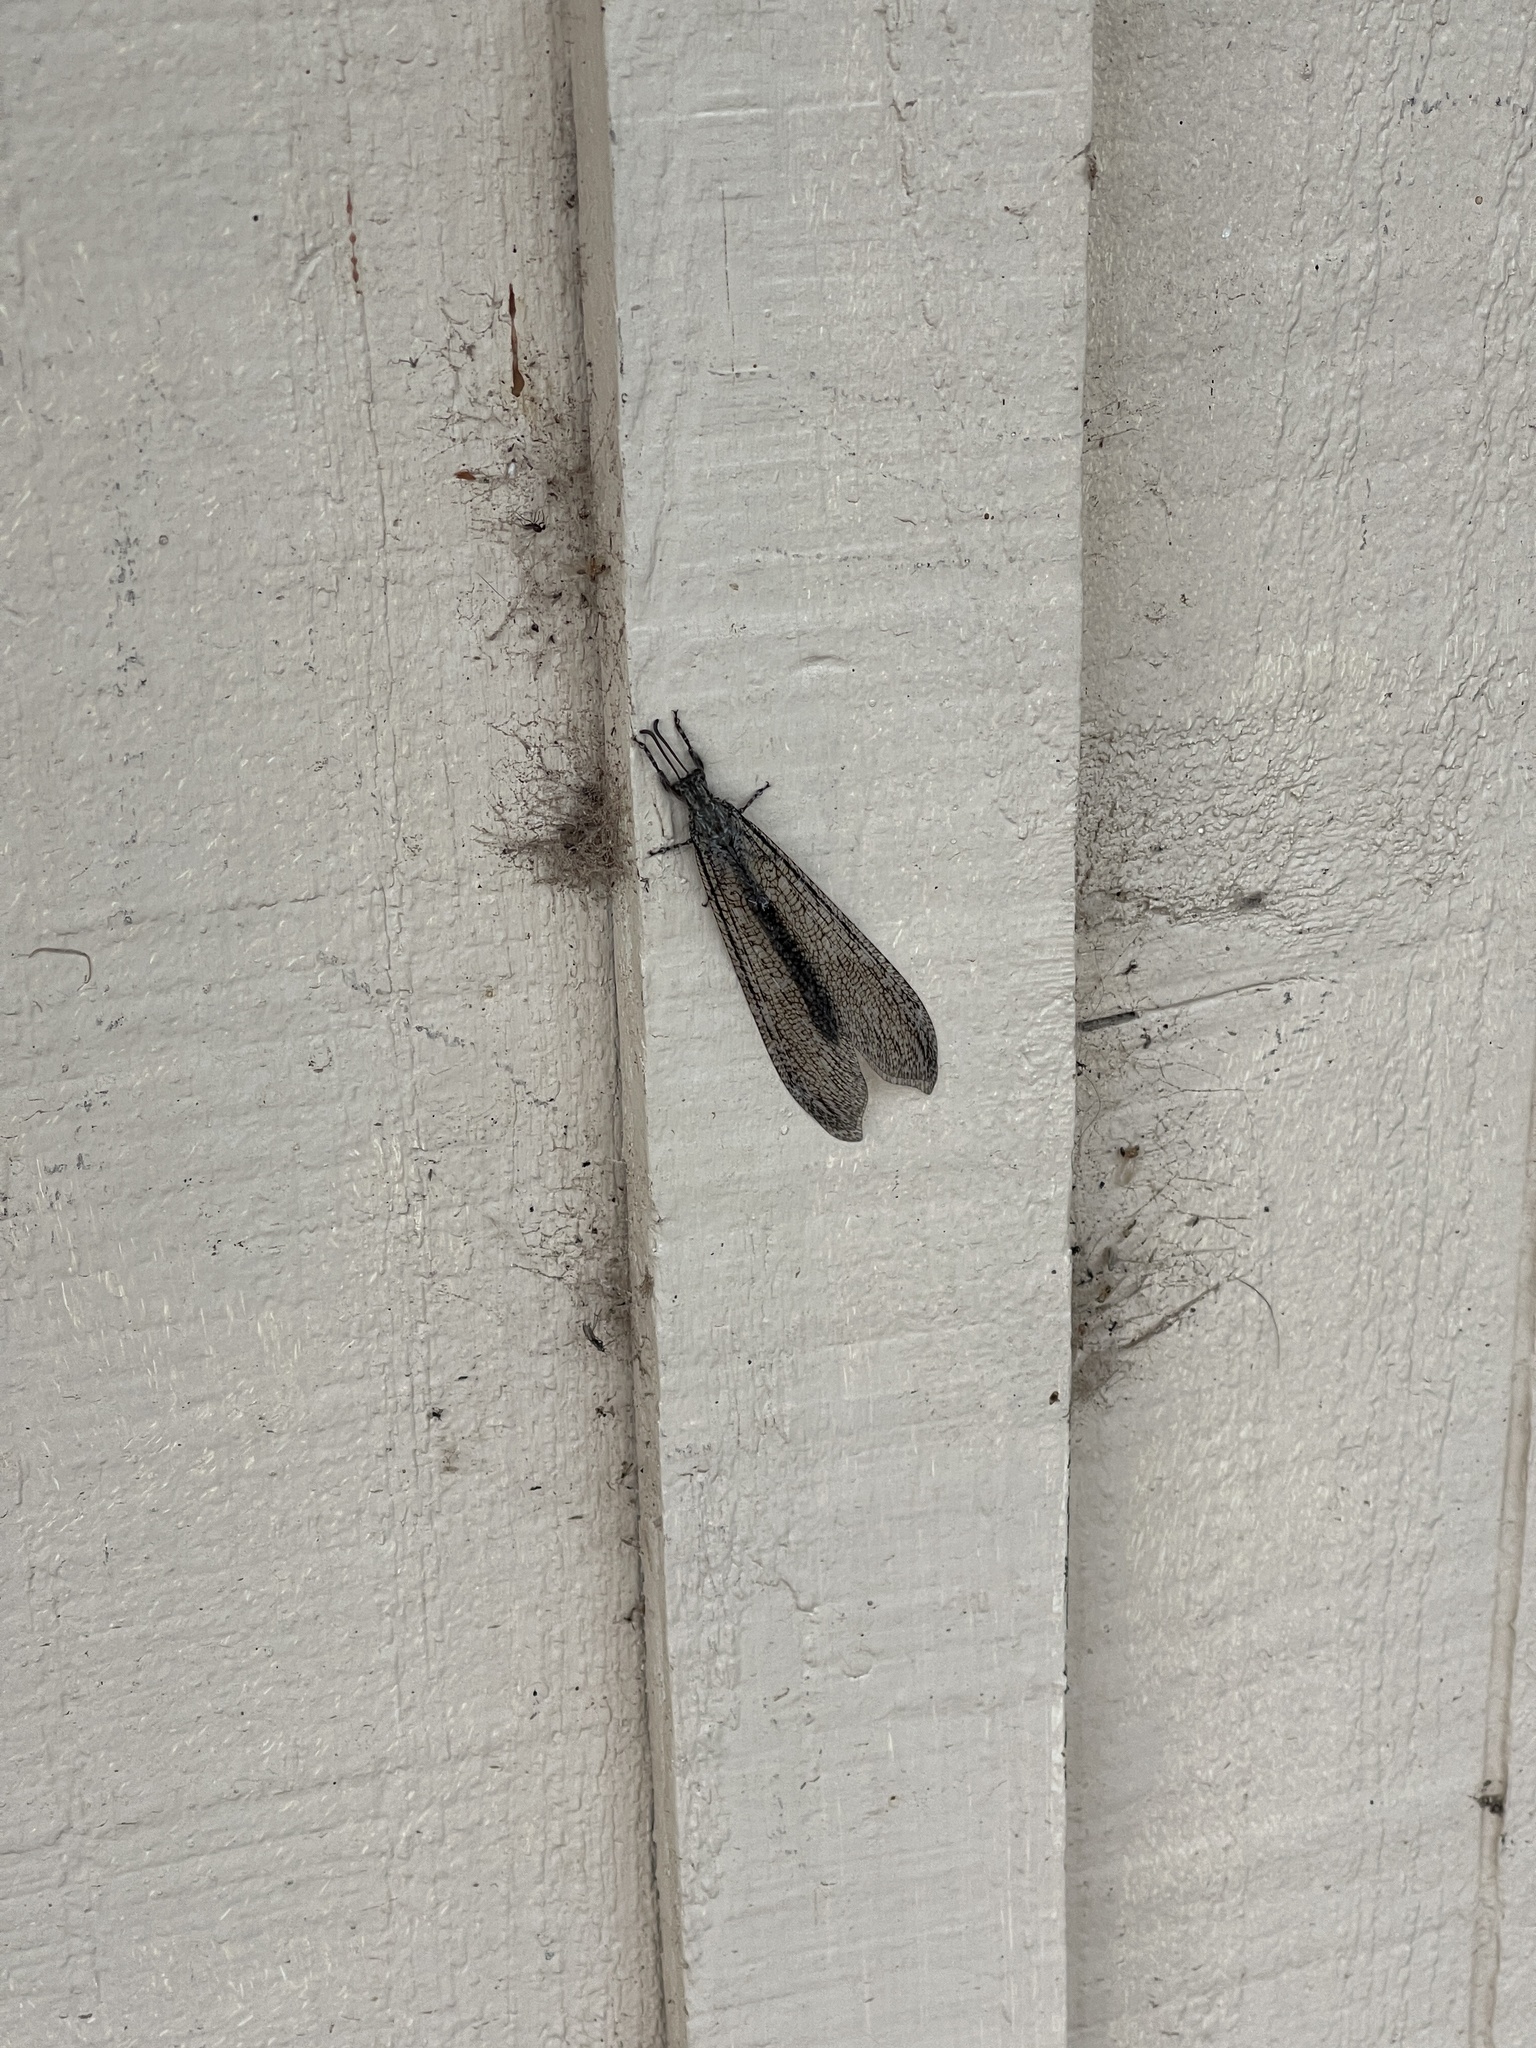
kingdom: Animalia
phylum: Arthropoda
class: Insecta
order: Neuroptera
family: Myrmeleontidae
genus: Vella
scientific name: Vella fallax
